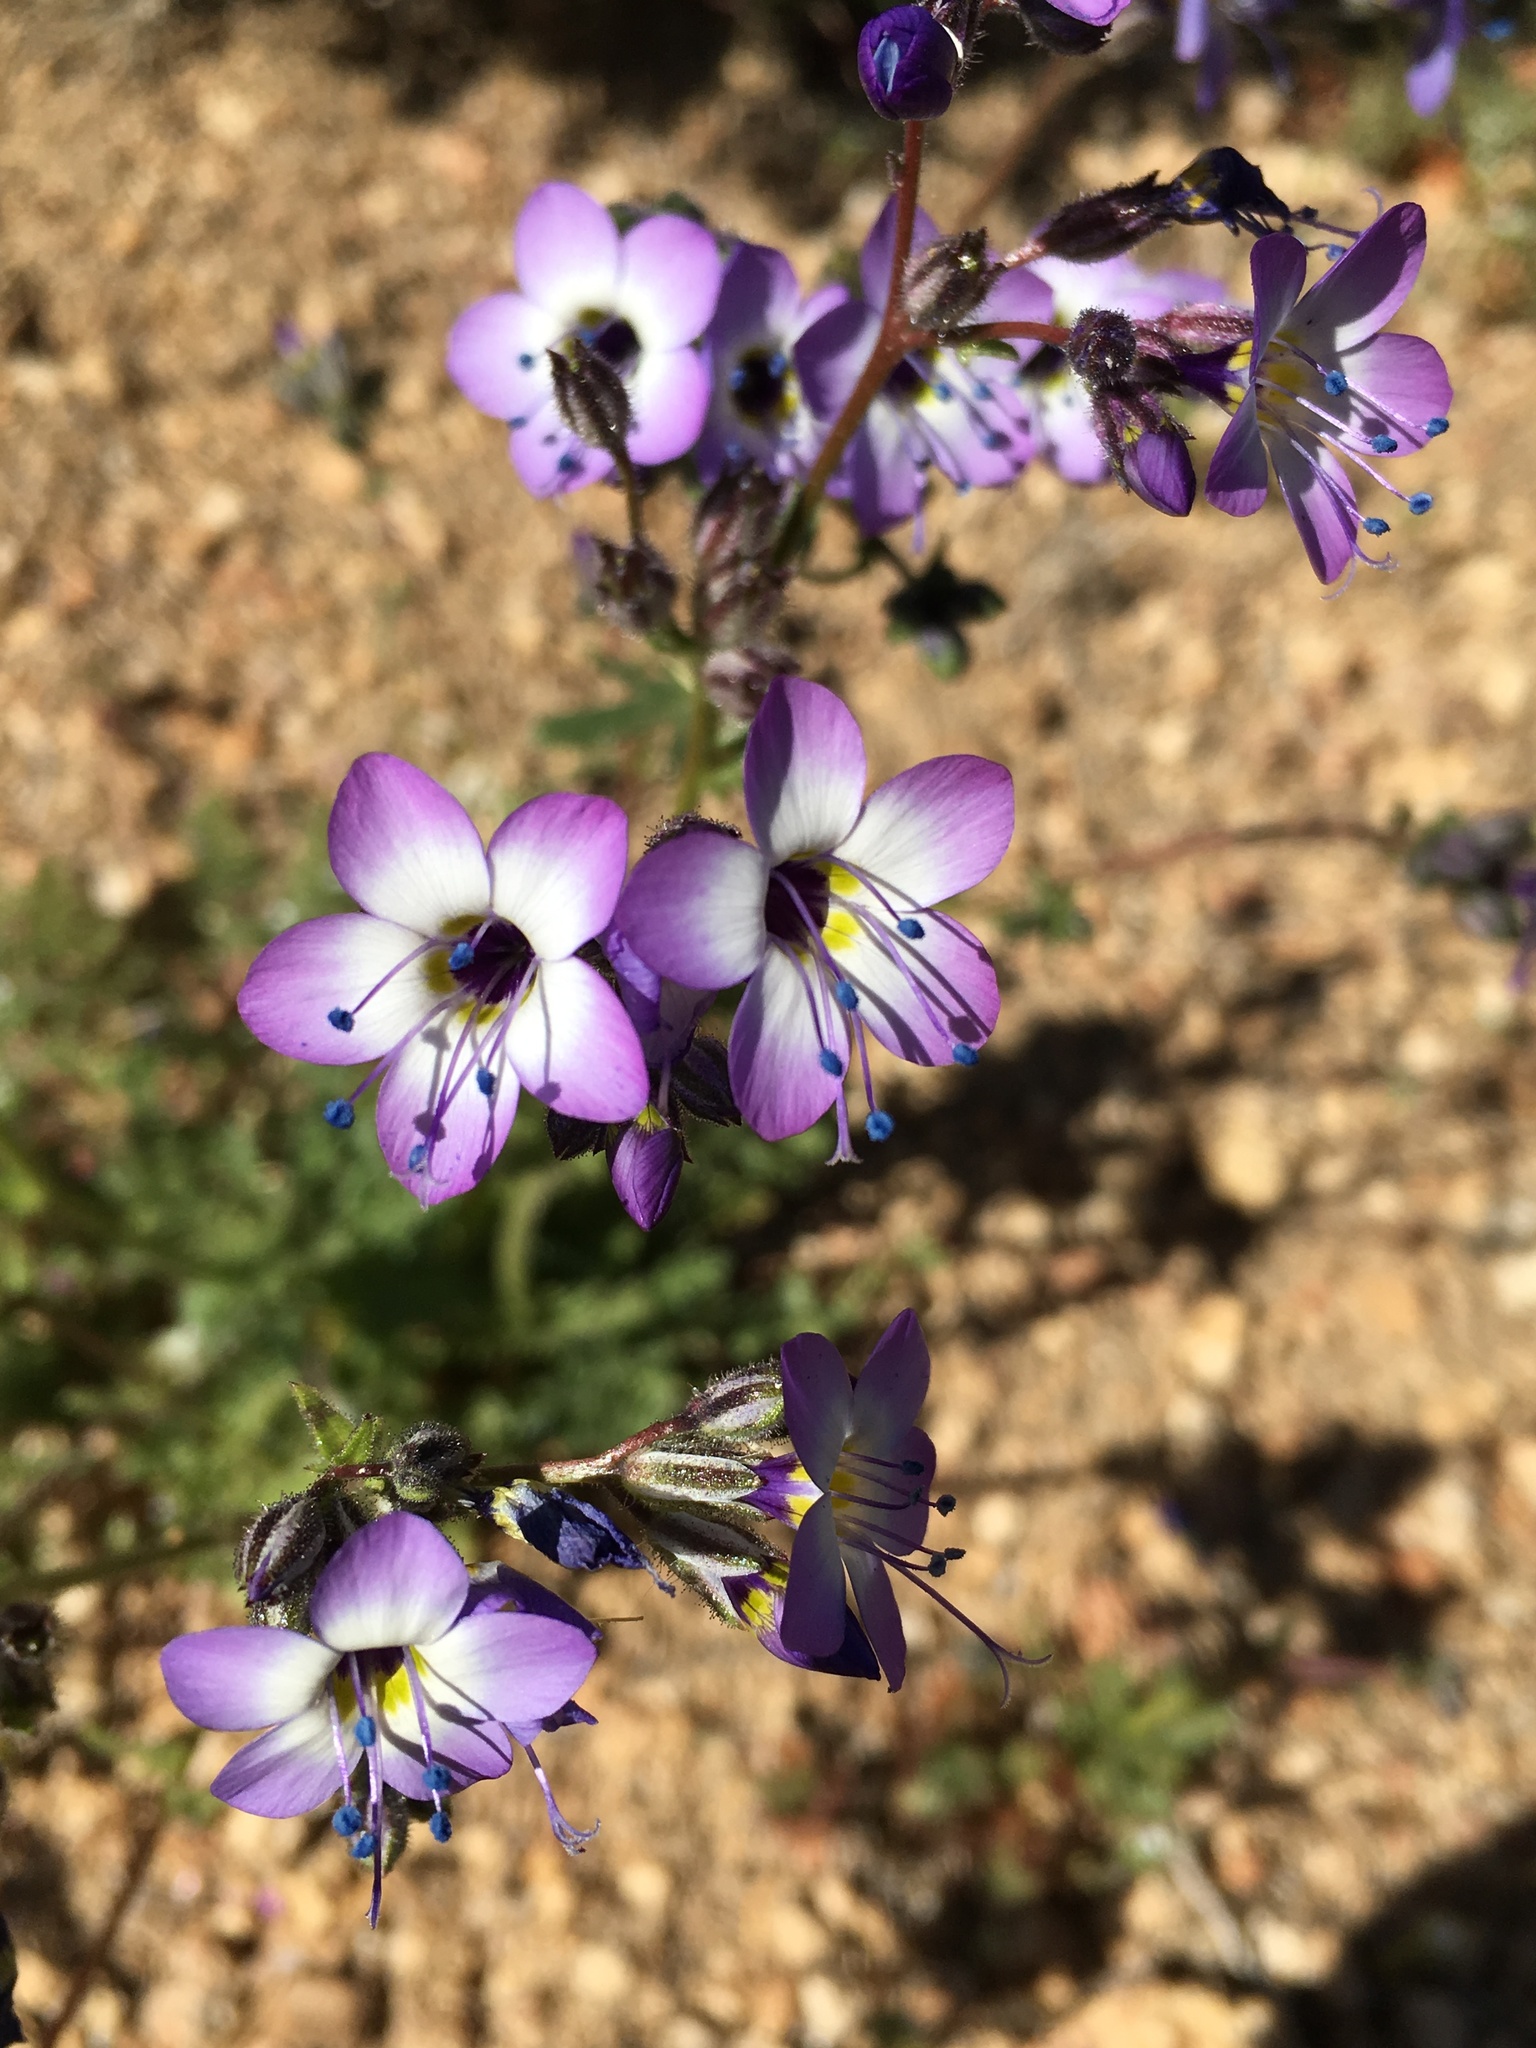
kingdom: Plantae
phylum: Tracheophyta
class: Magnoliopsida
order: Ericales
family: Polemoniaceae
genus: Gilia
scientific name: Gilia brecciarum
